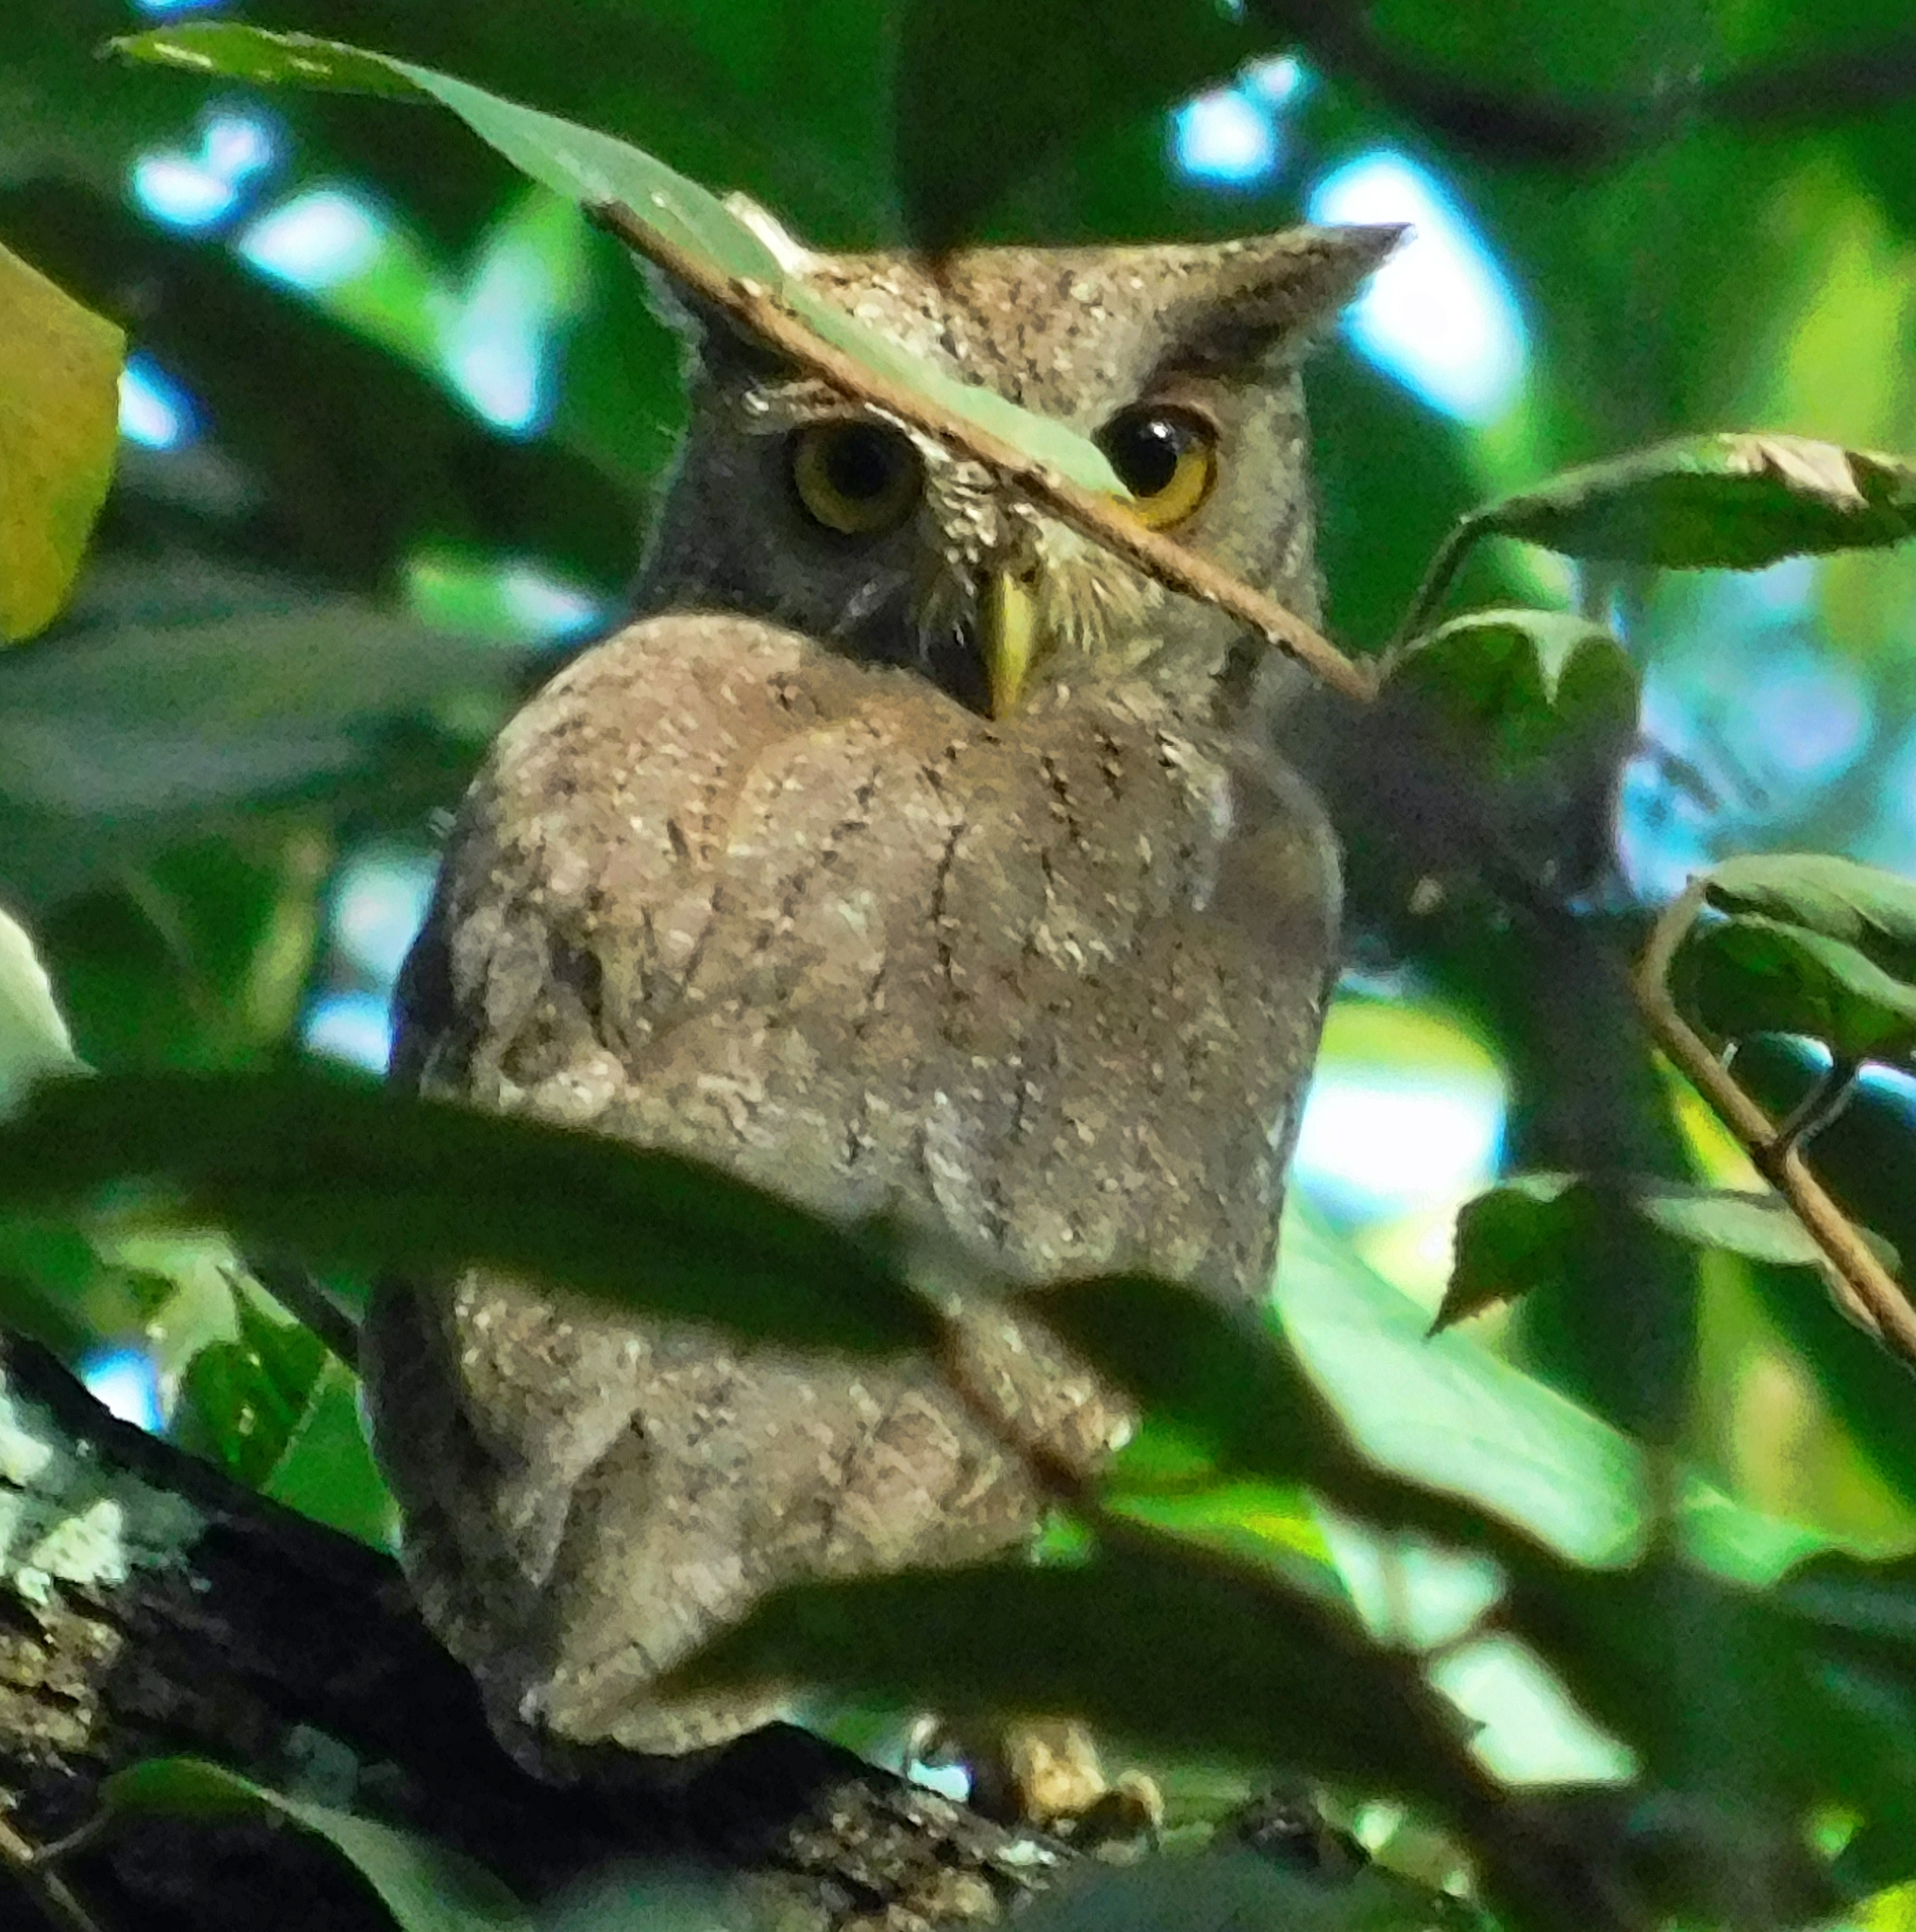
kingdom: Animalia
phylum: Chordata
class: Aves
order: Strigiformes
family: Strigidae
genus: Megascops
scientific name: Megascops cooperi
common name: Pacific screech-owl
